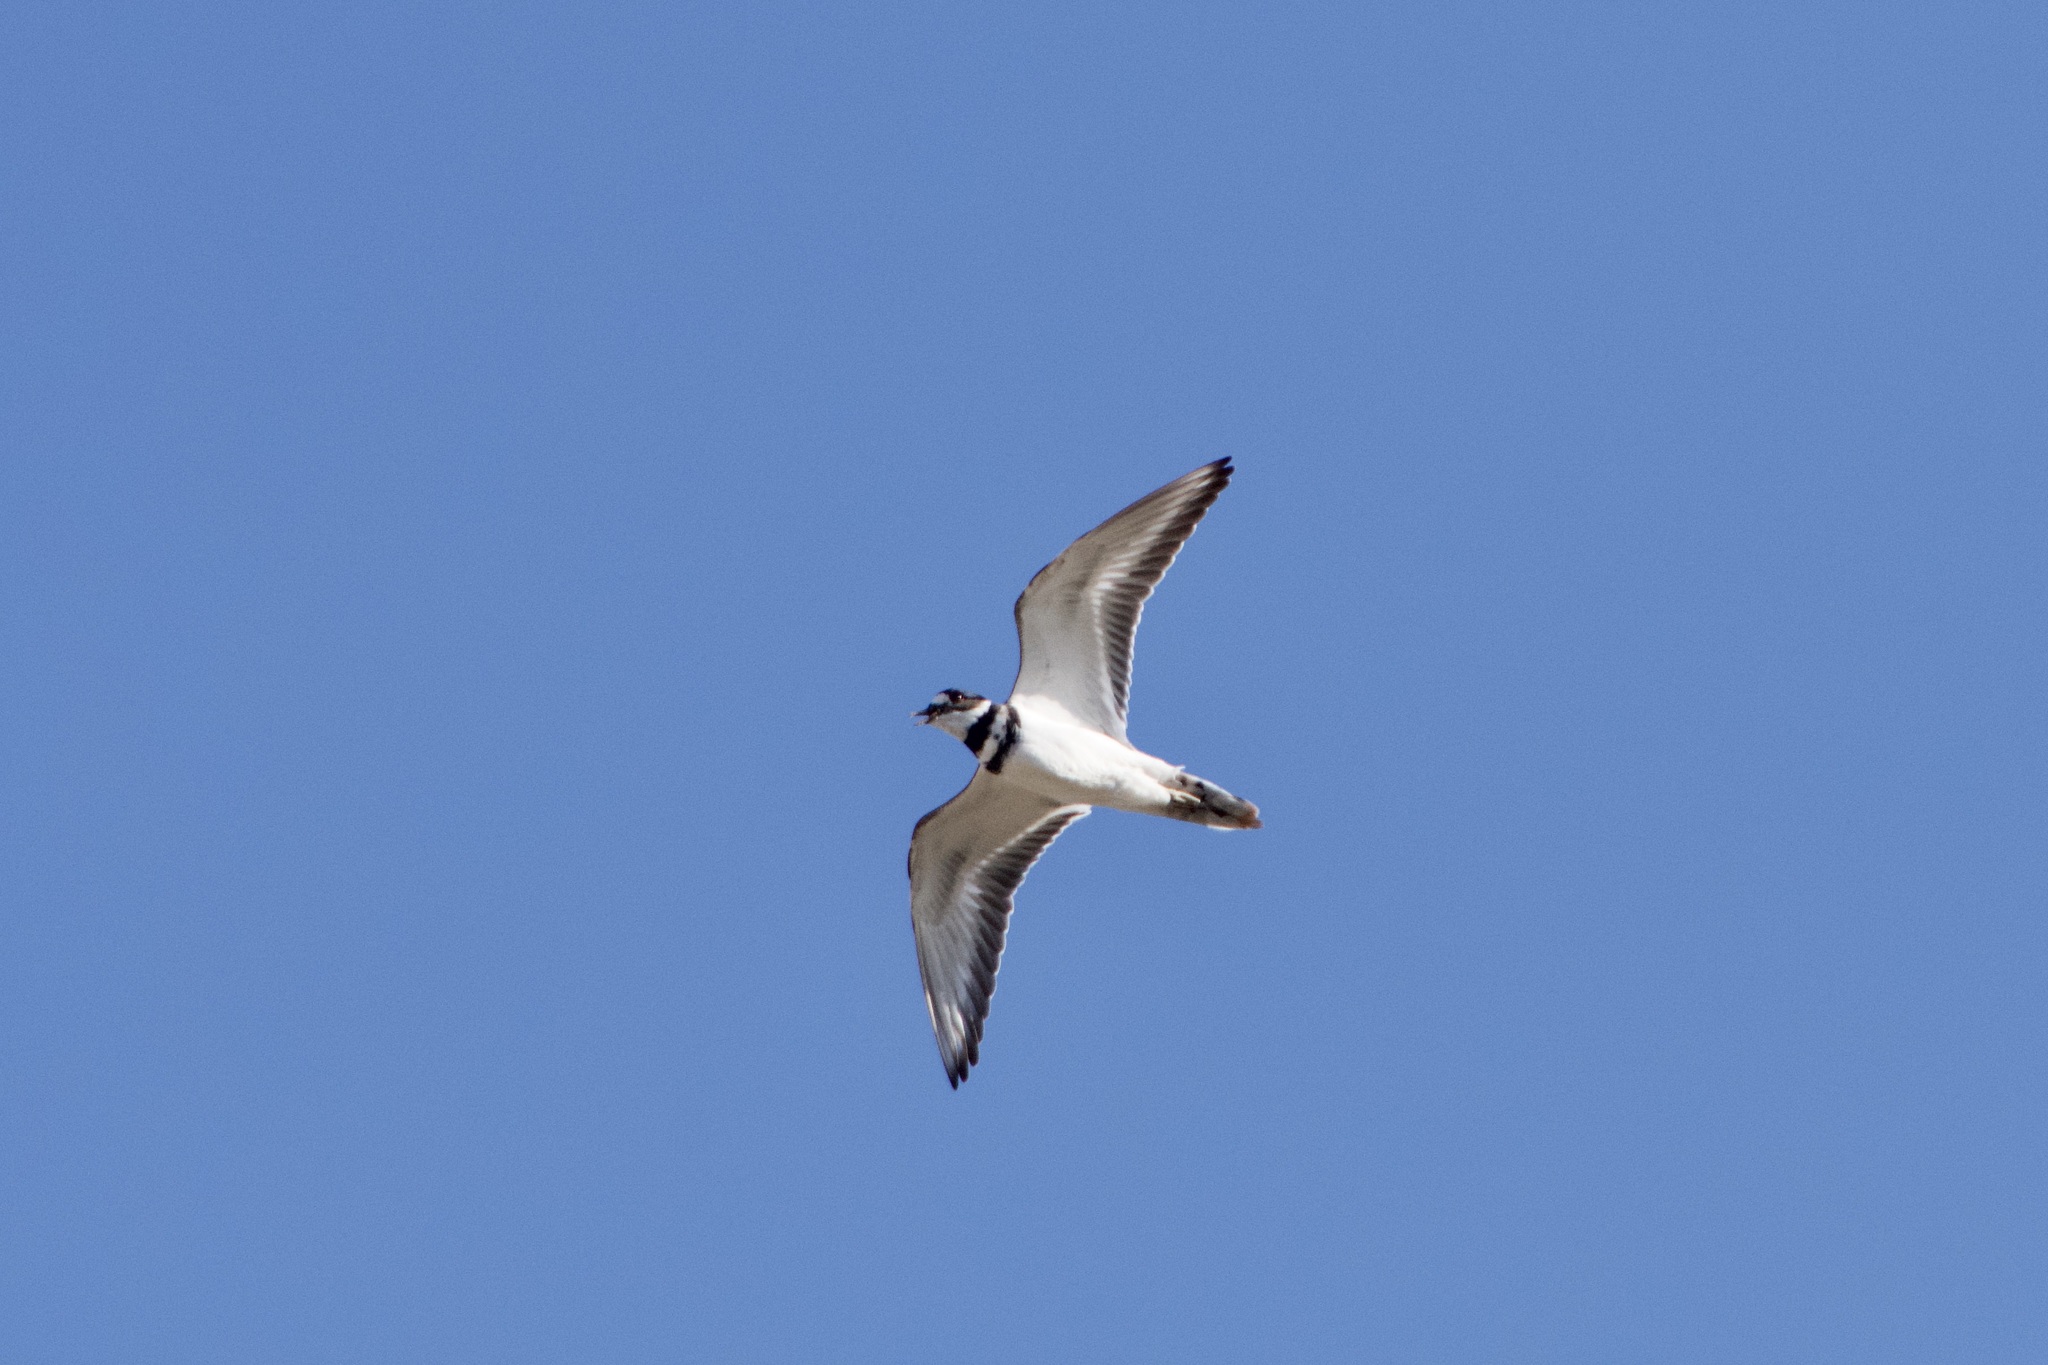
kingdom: Animalia
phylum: Chordata
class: Aves
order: Charadriiformes
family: Charadriidae
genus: Charadrius
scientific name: Charadrius vociferus
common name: Killdeer
